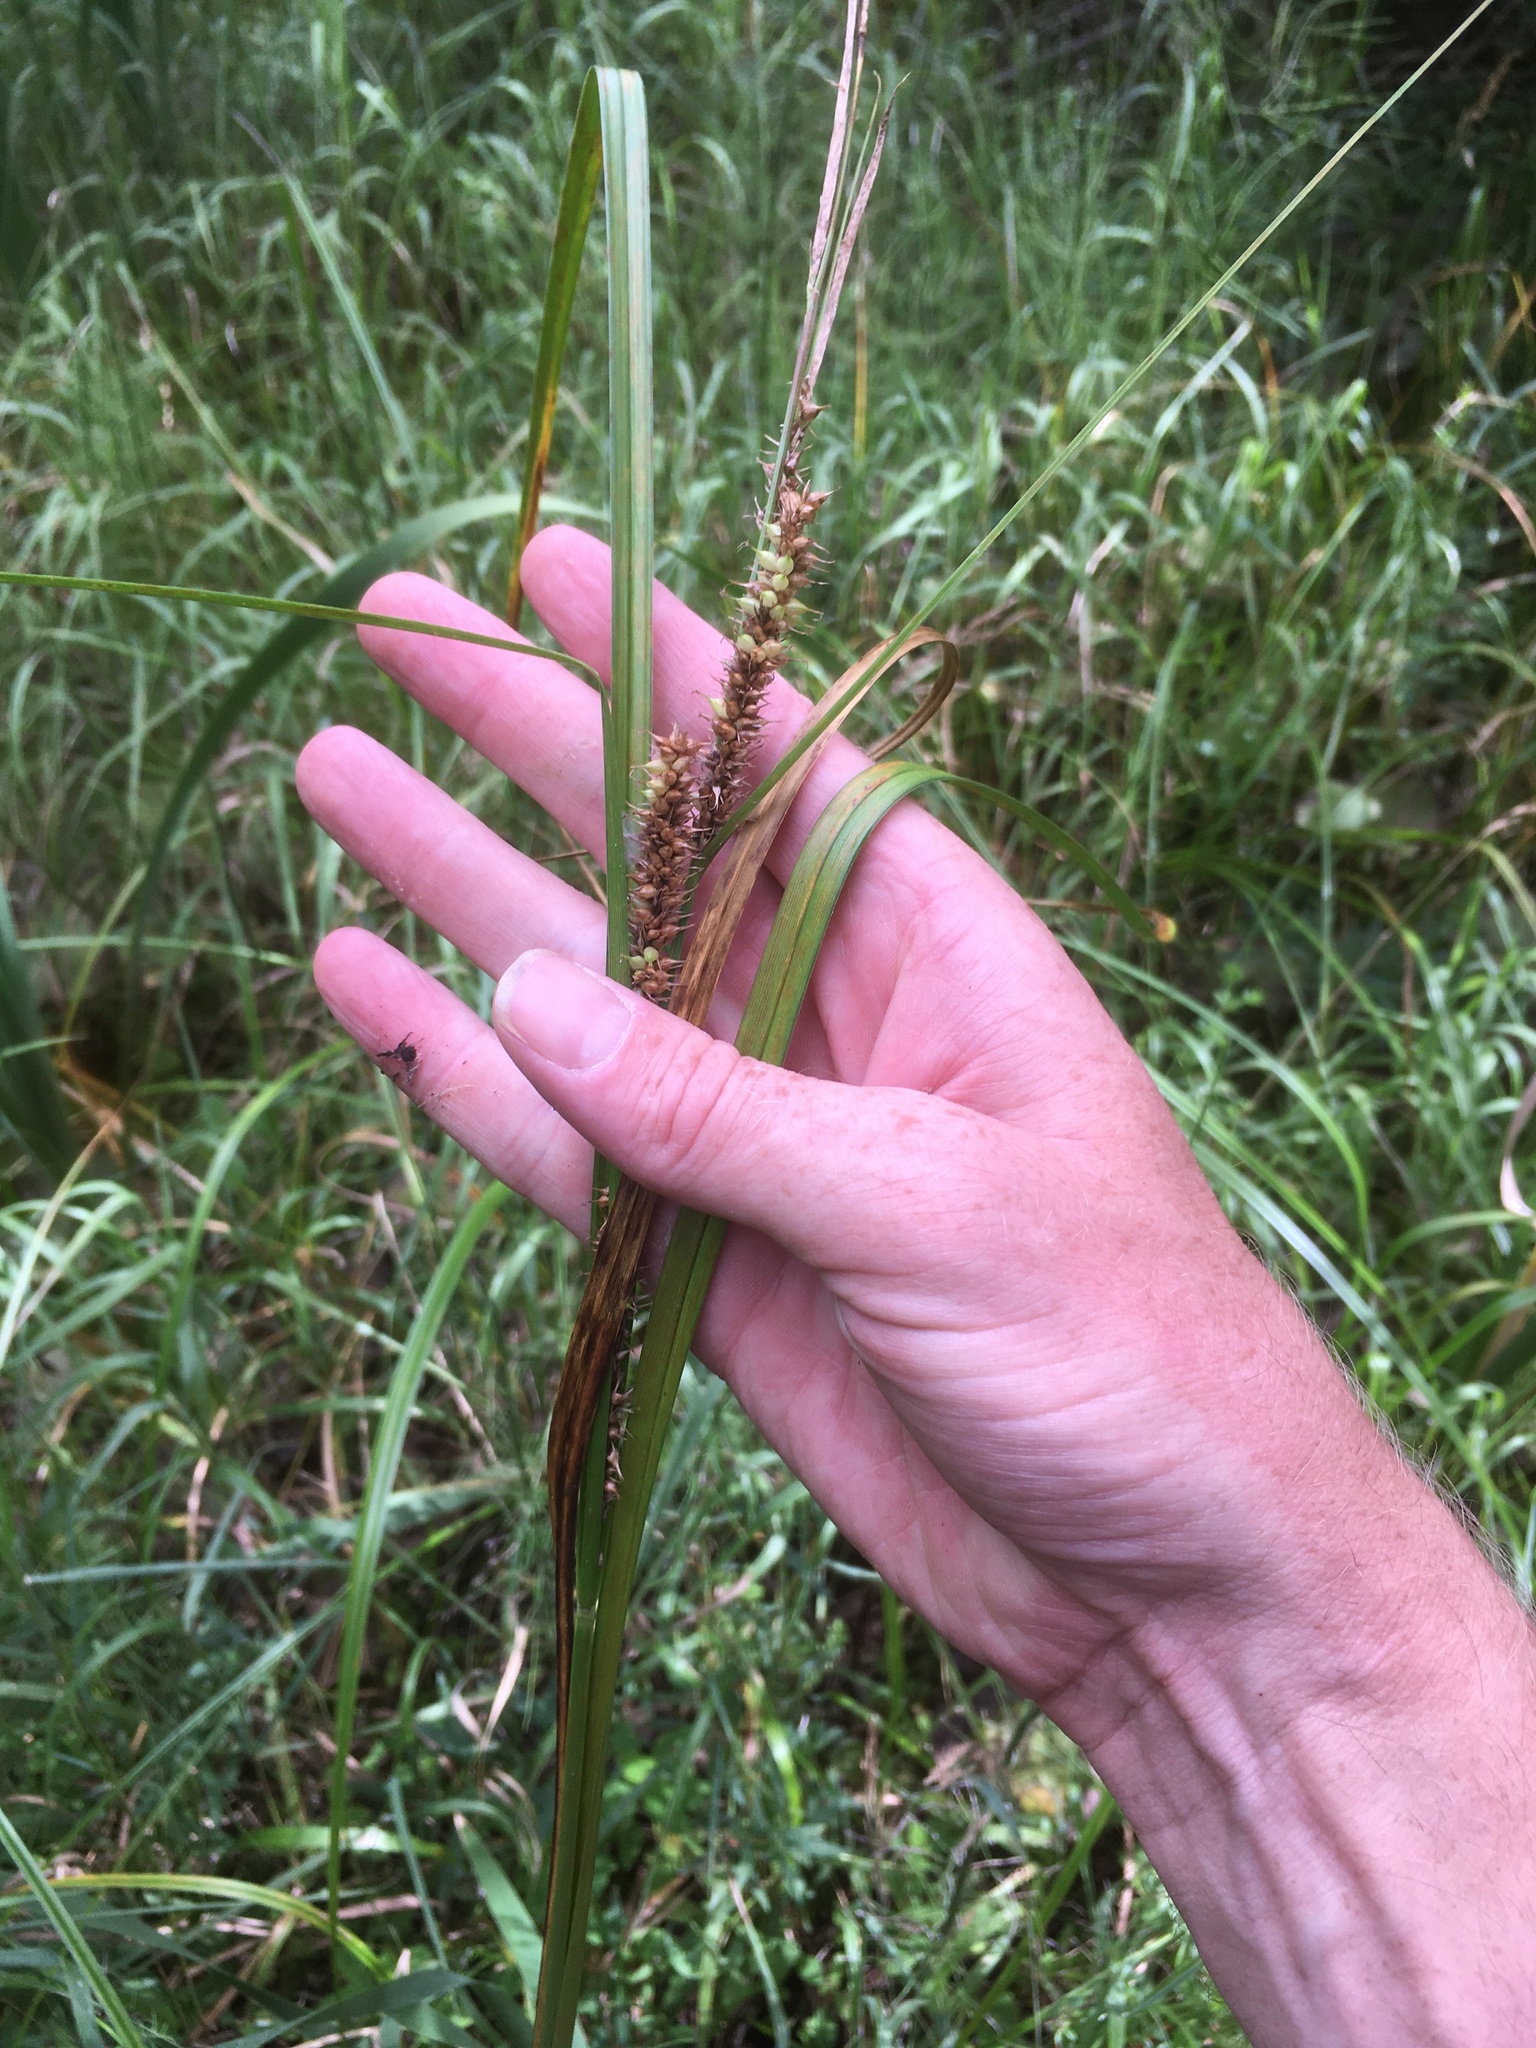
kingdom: Plantae
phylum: Tracheophyta
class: Liliopsida
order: Poales
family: Cyperaceae
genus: Carex
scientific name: Carex utriculata
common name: Beaked sedge
